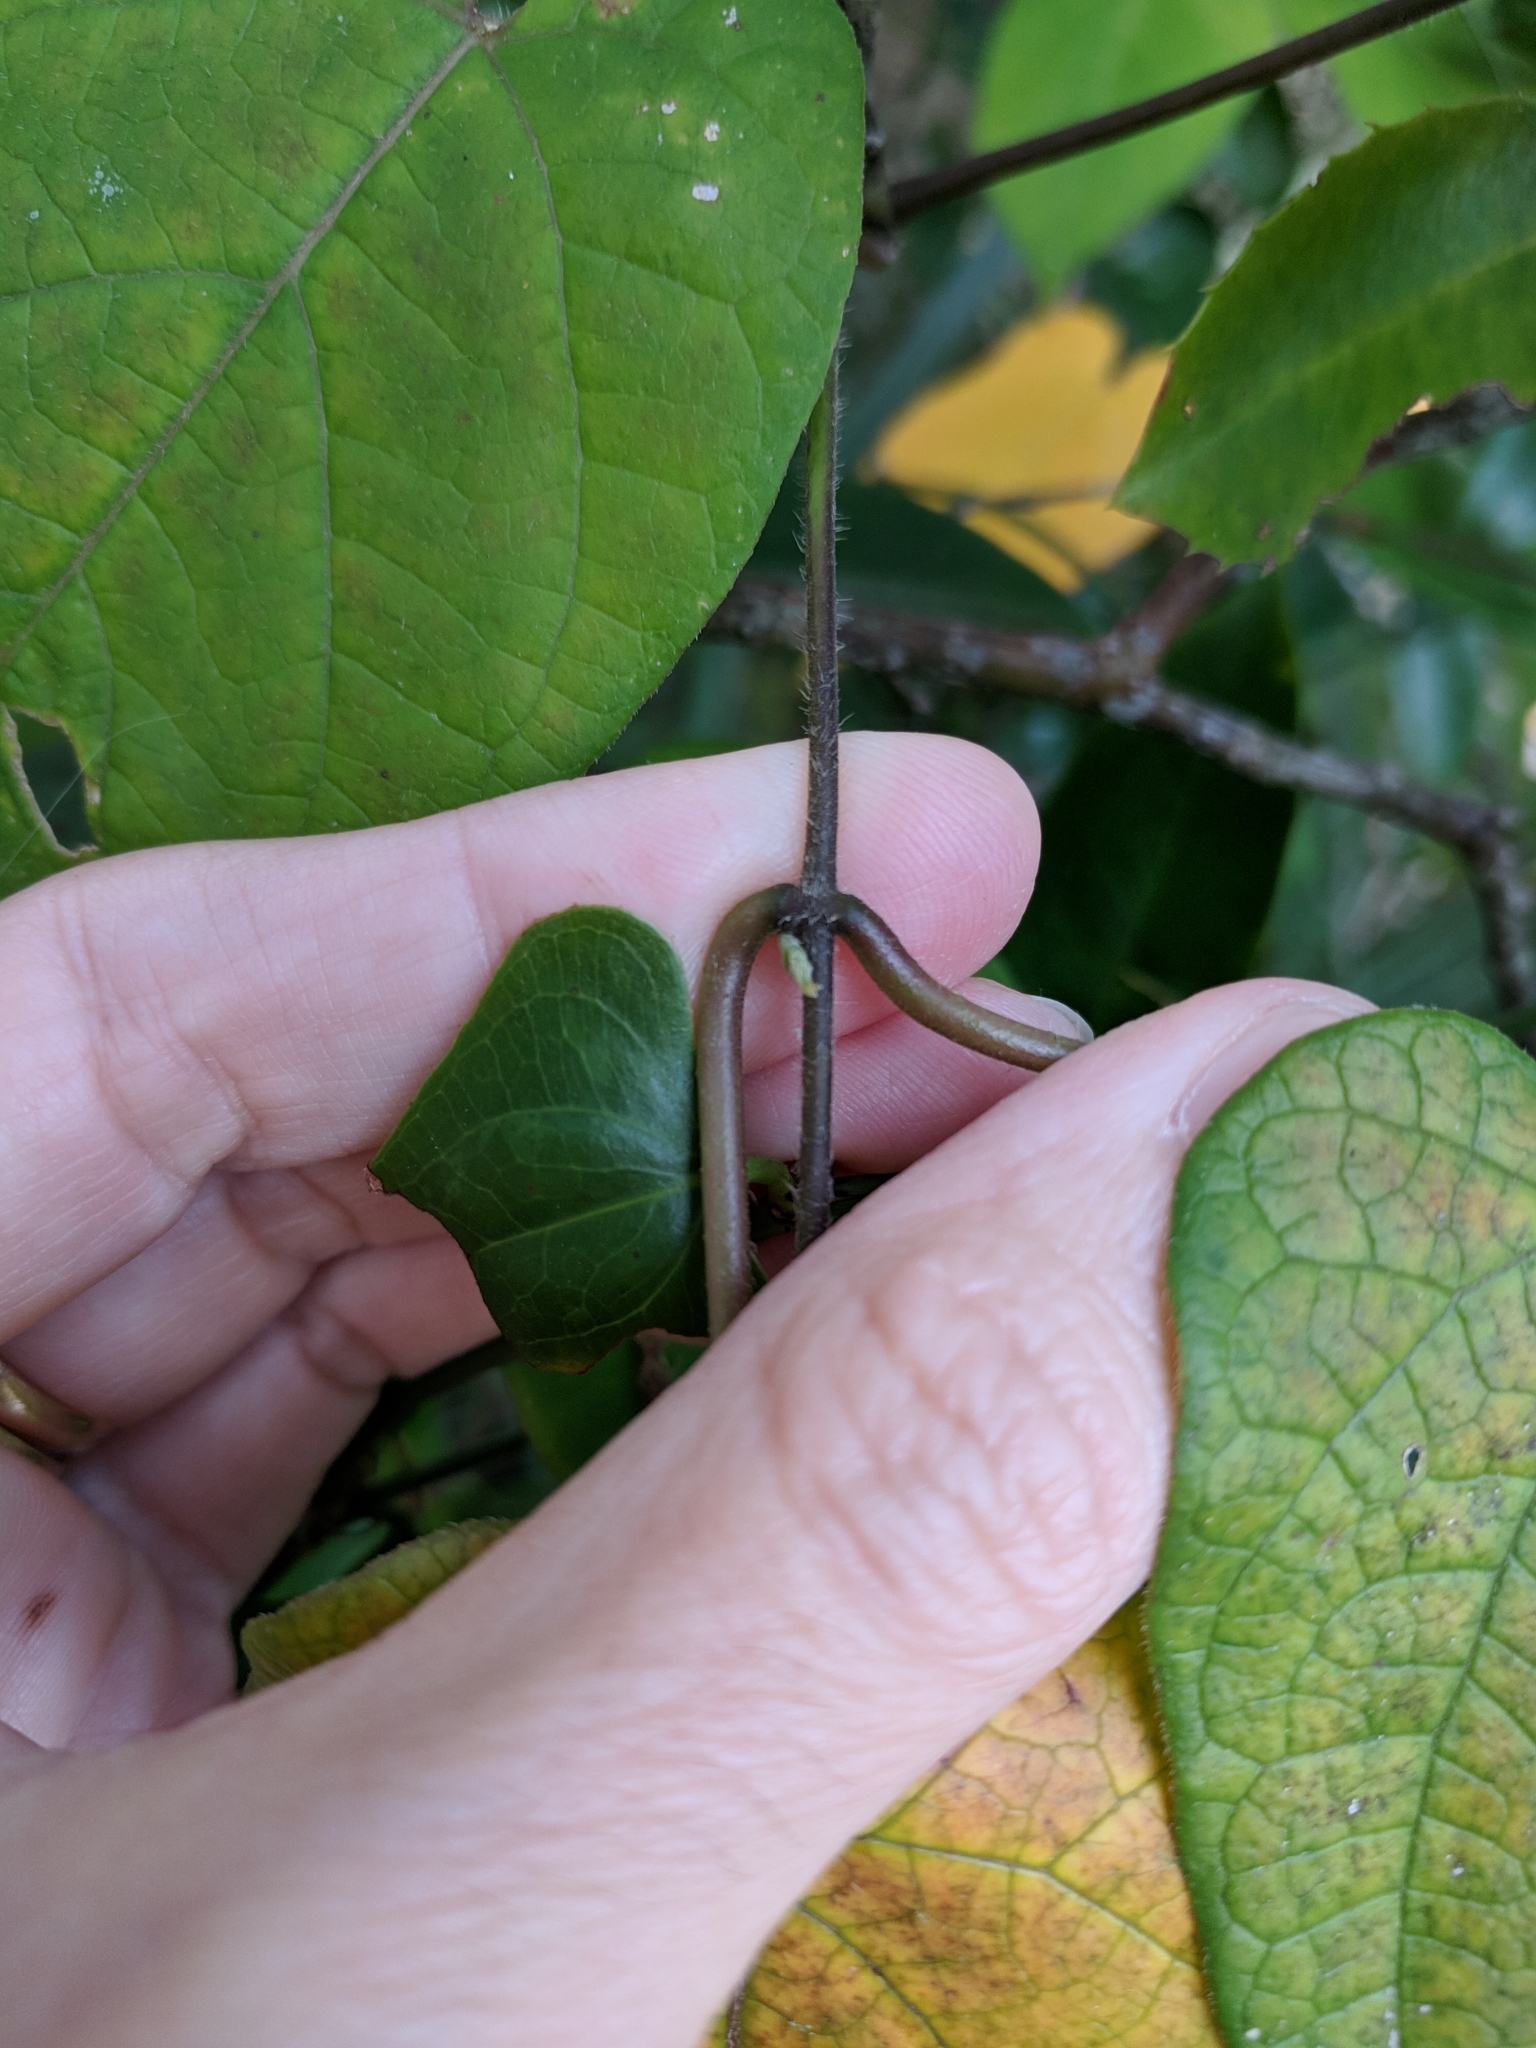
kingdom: Plantae
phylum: Tracheophyta
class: Magnoliopsida
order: Gentianales
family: Apocynaceae
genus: Gonolobus
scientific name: Gonolobus suberosus
